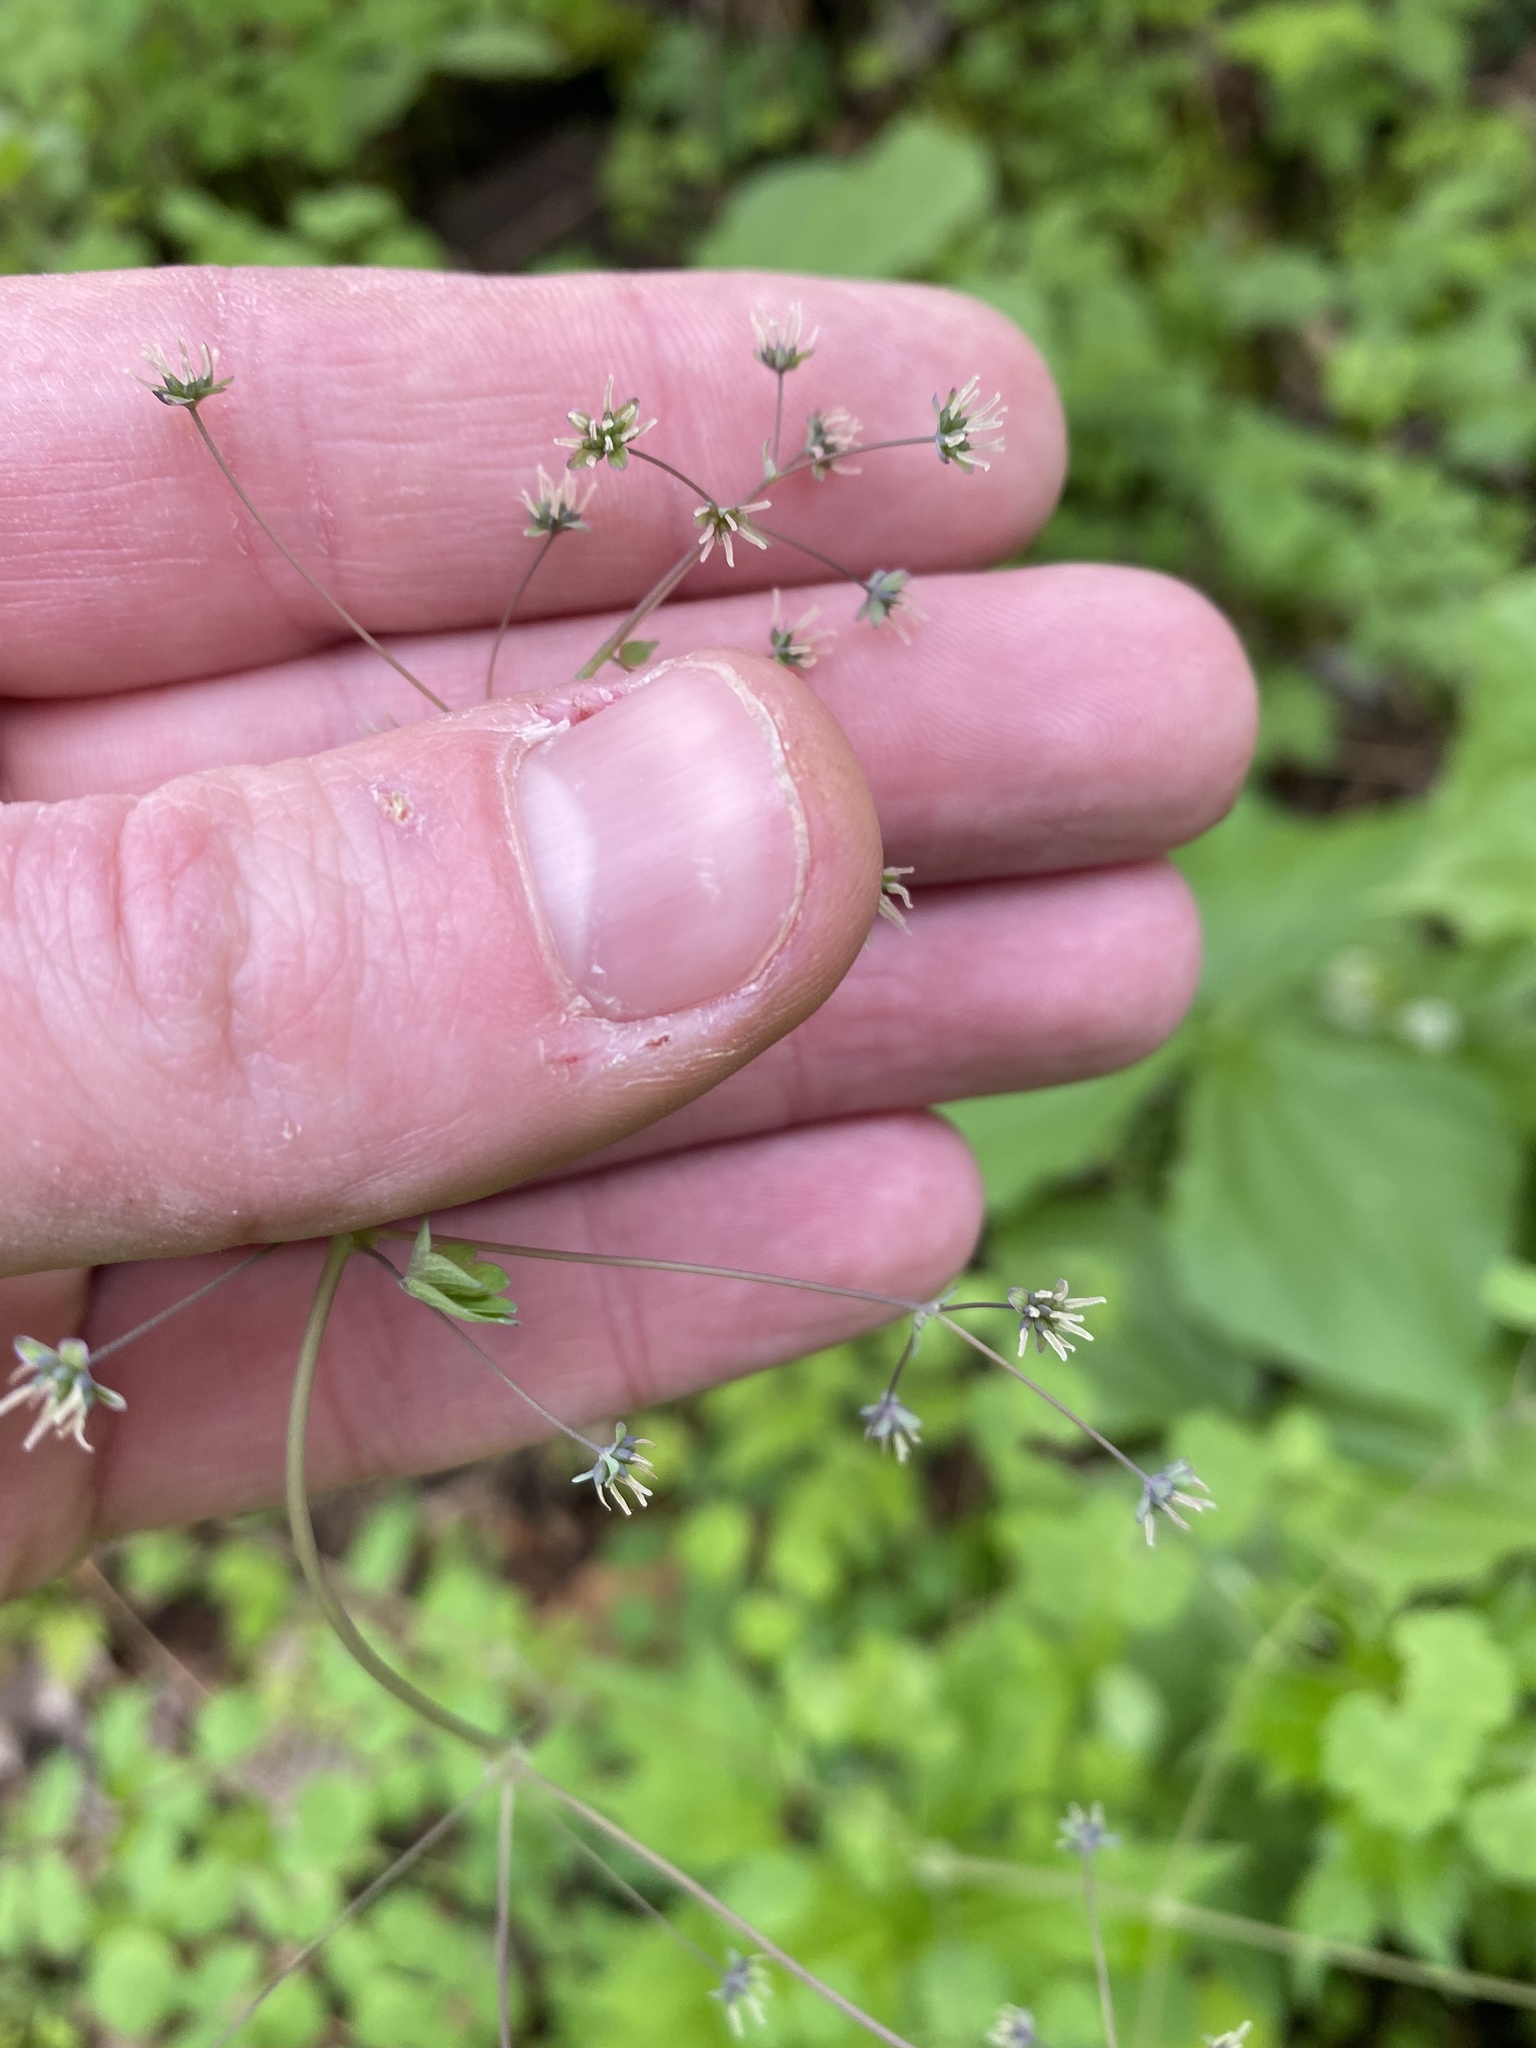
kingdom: Plantae
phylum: Tracheophyta
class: Magnoliopsida
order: Ranunculales
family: Ranunculaceae
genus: Thalictrum
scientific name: Thalictrum dioicum
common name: Early meadow-rue
